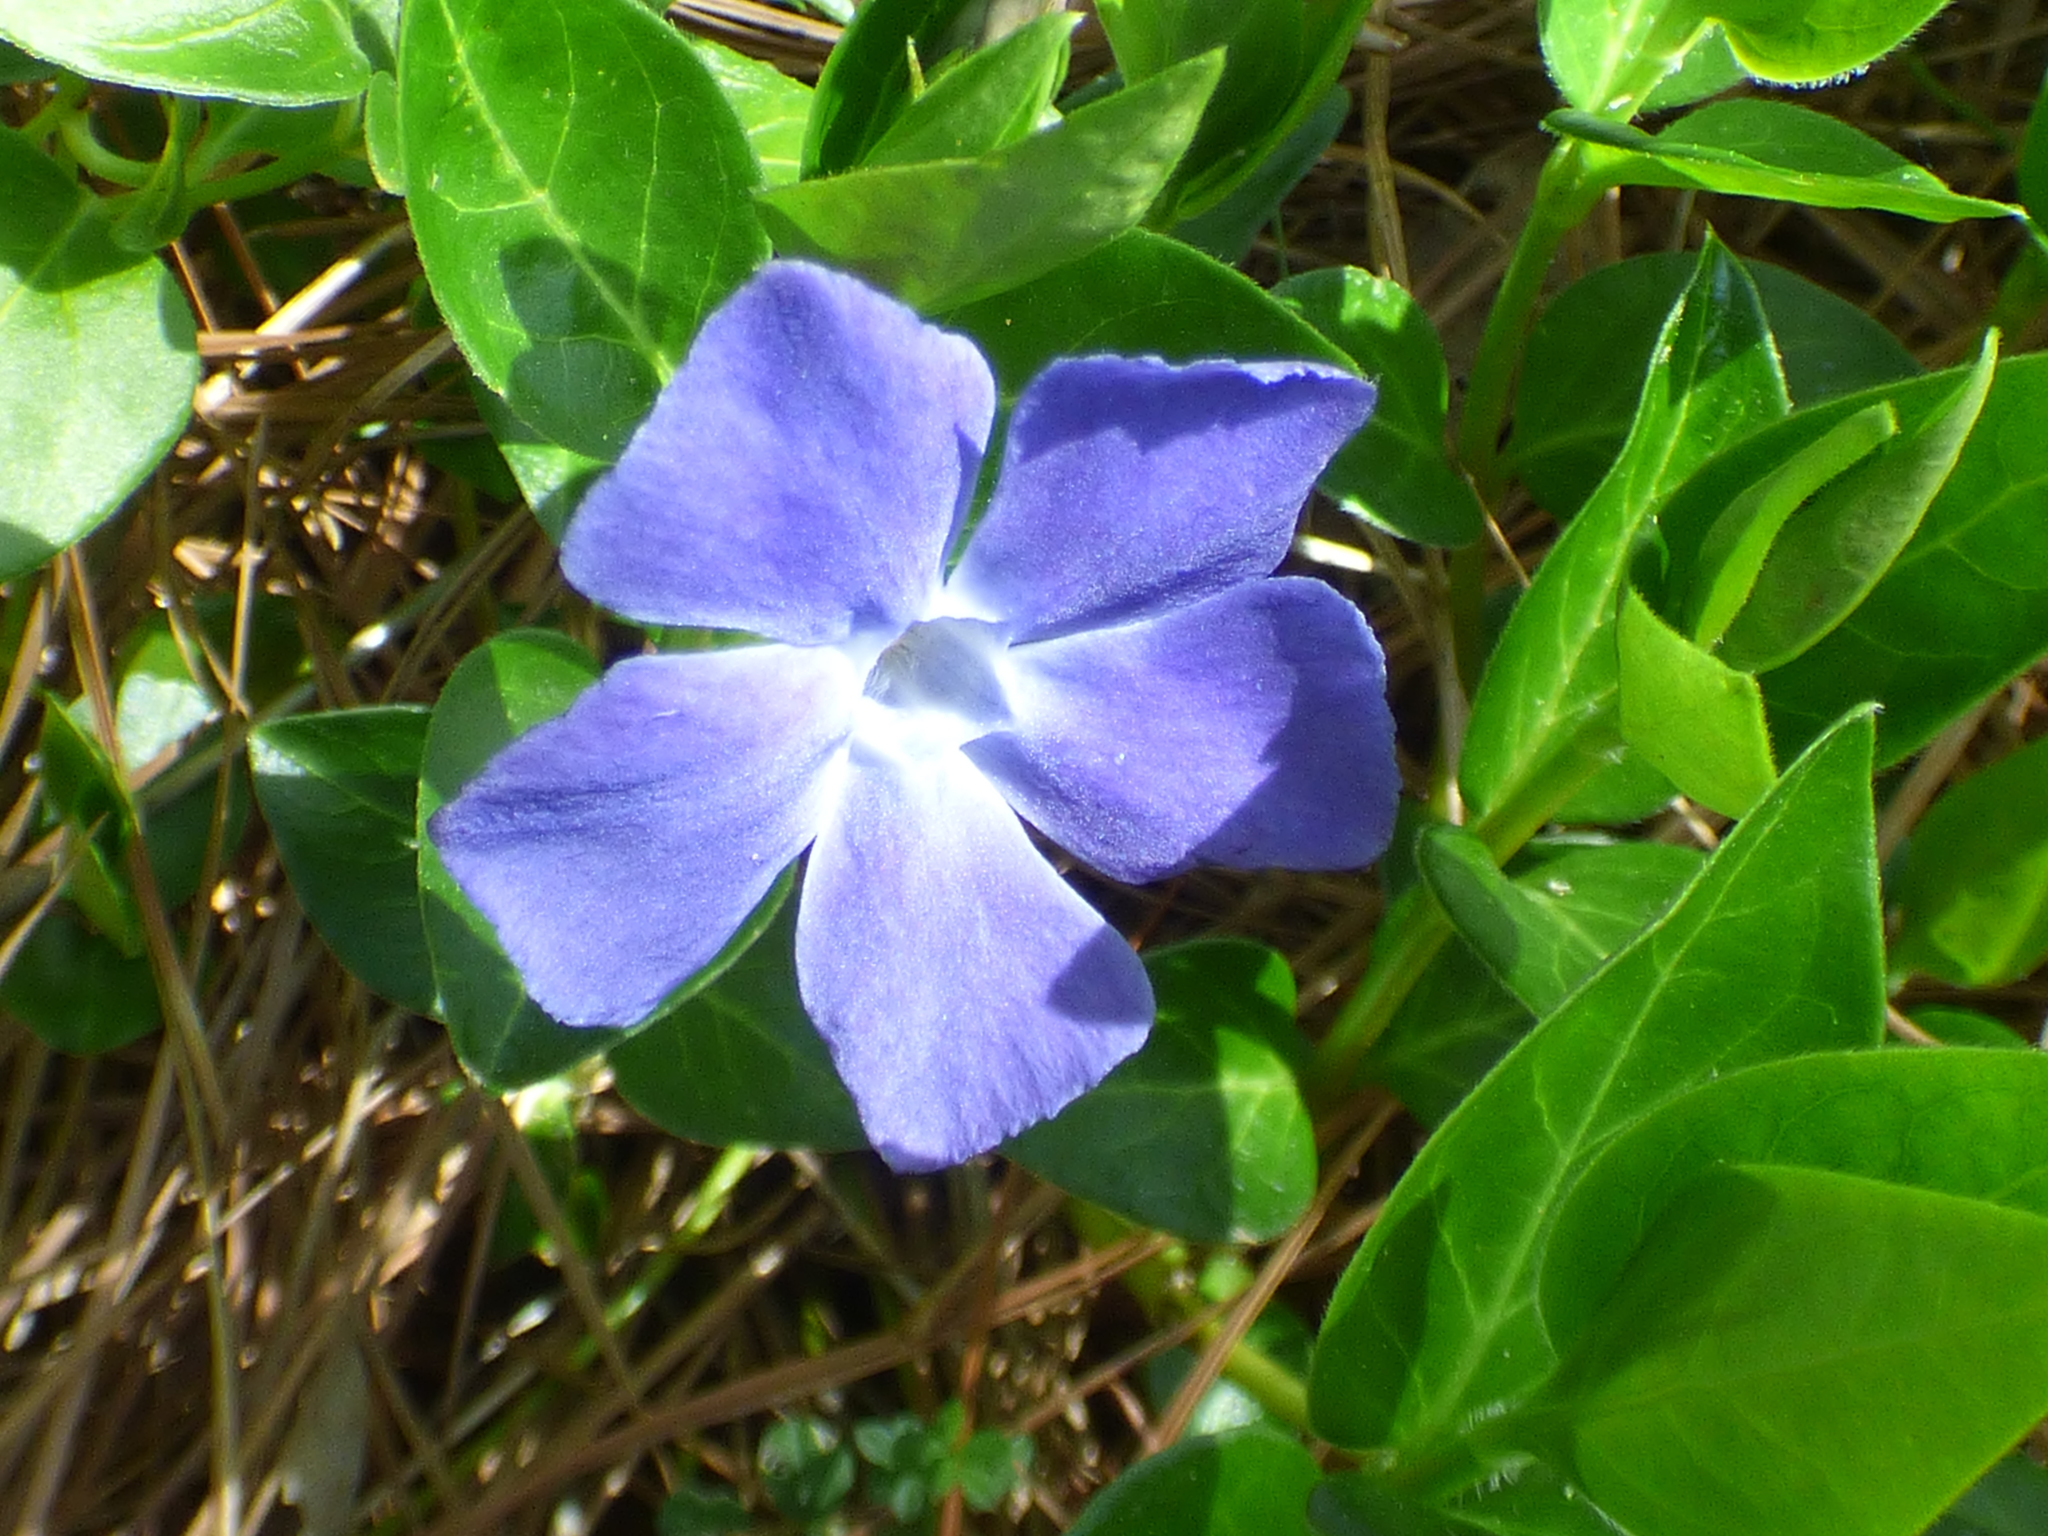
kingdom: Plantae
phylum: Tracheophyta
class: Magnoliopsida
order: Gentianales
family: Apocynaceae
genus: Vinca
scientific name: Vinca major
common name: Greater periwinkle
